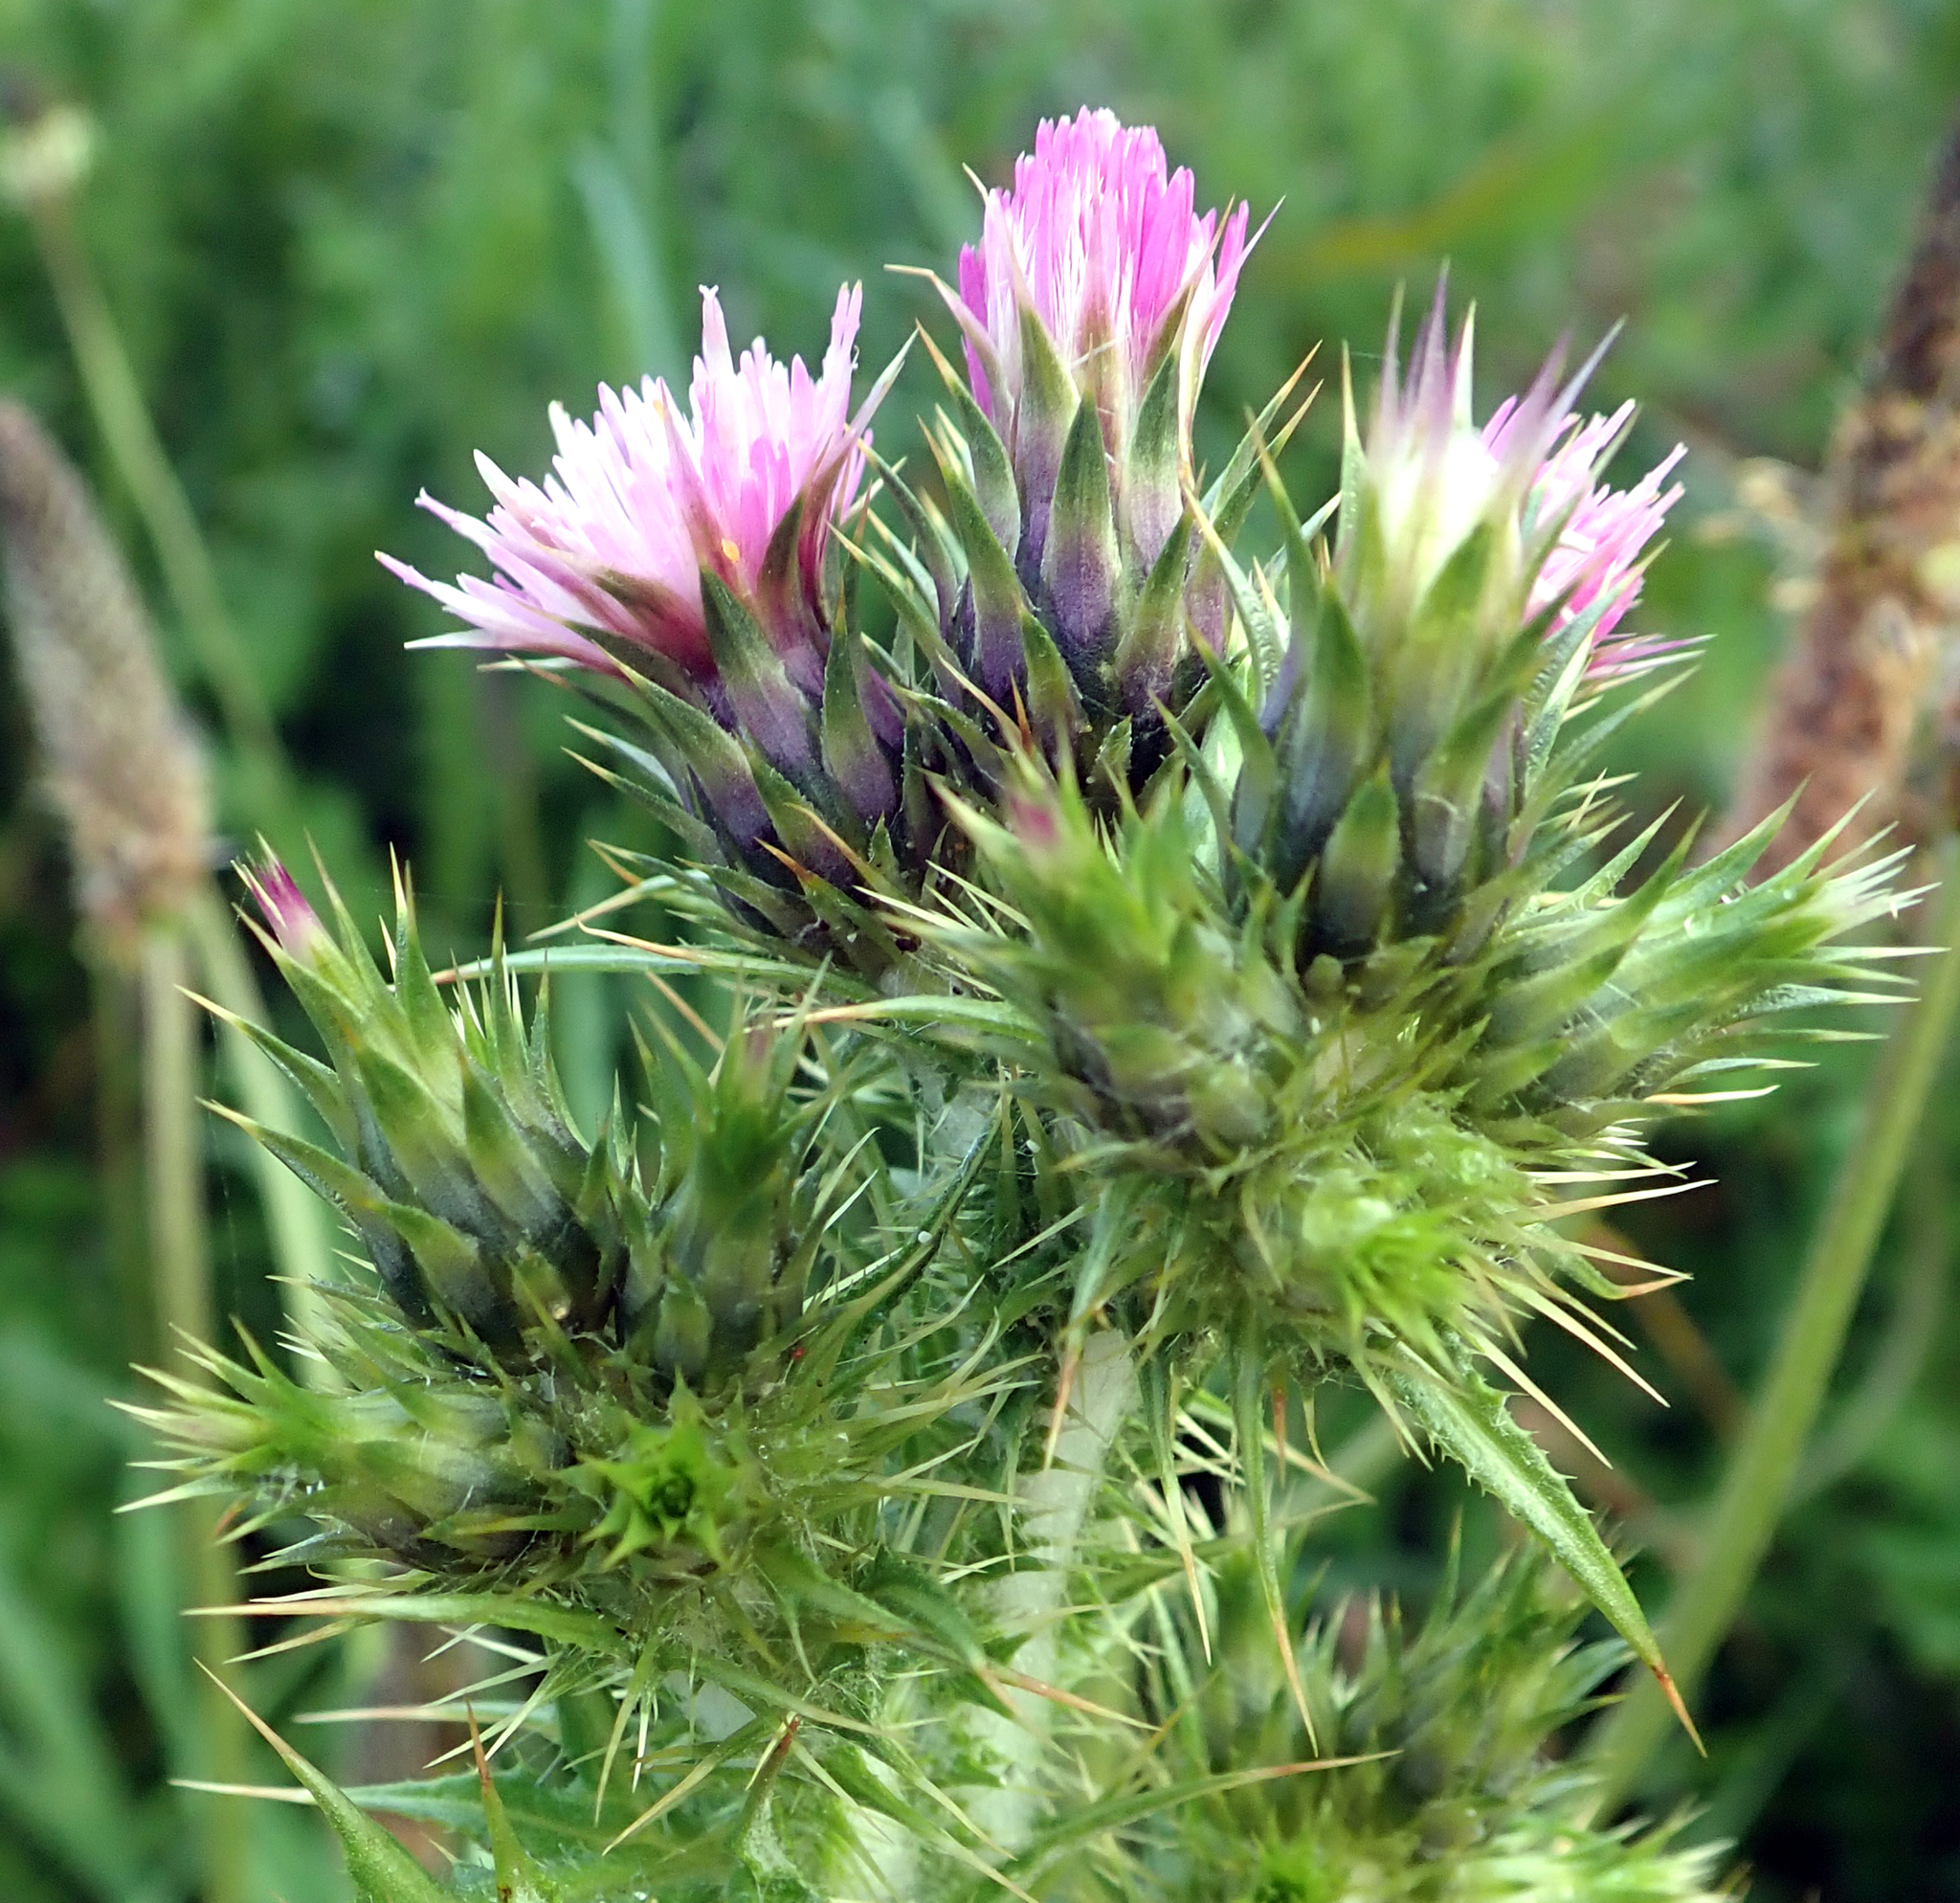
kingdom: Plantae
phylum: Tracheophyta
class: Magnoliopsida
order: Asterales
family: Asteraceae
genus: Carduus
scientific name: Carduus tenuiflorus
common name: Slender thistle
